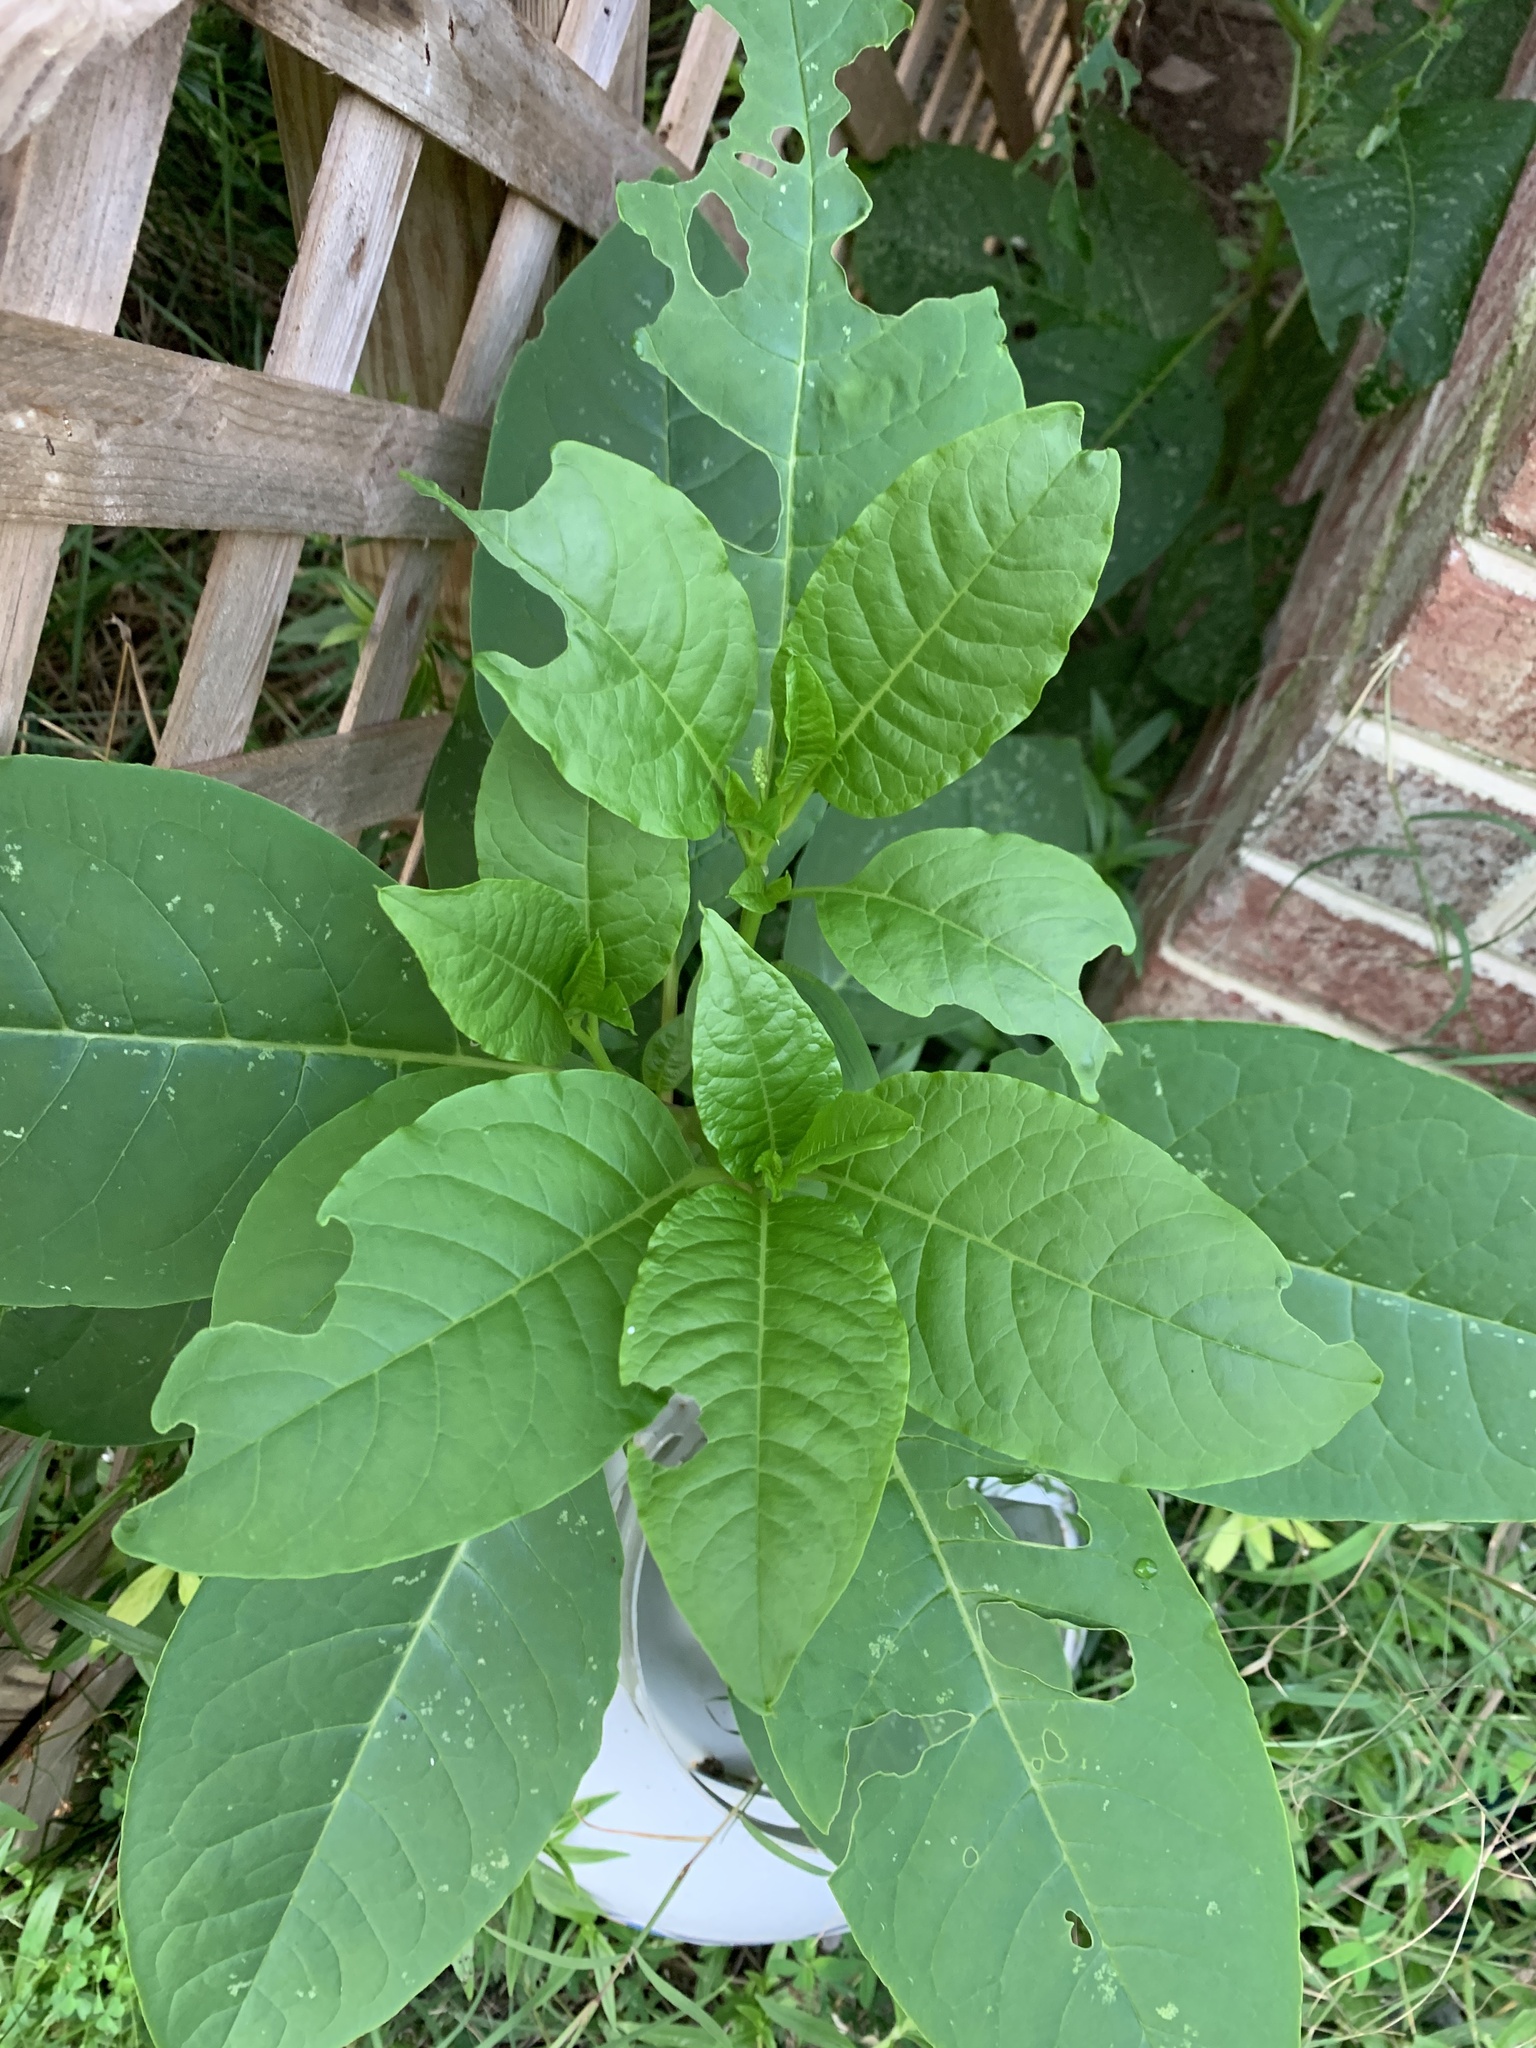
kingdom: Plantae
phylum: Tracheophyta
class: Magnoliopsida
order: Caryophyllales
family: Phytolaccaceae
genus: Phytolacca
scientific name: Phytolacca americana
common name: American pokeweed
